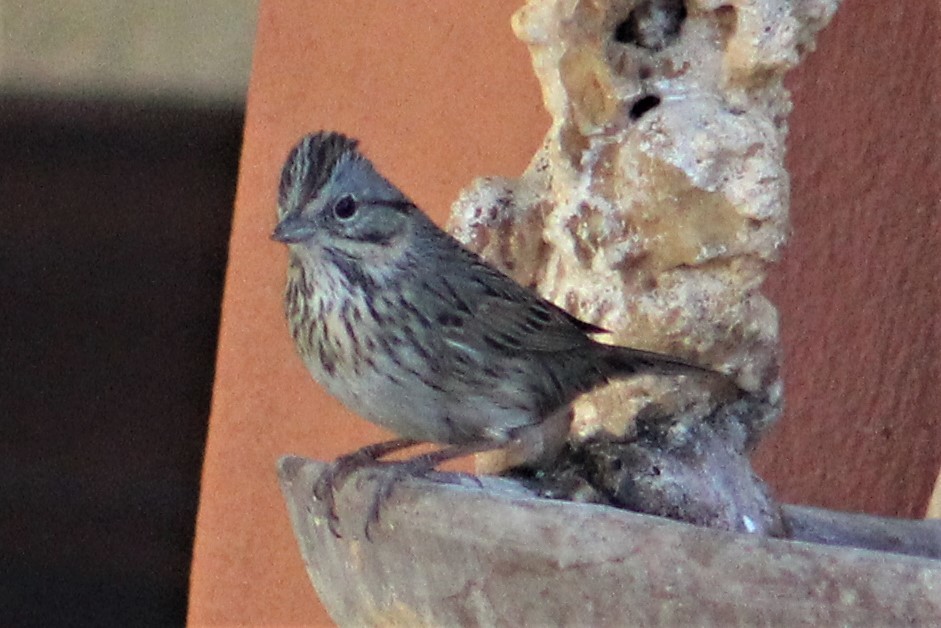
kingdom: Animalia
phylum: Chordata
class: Aves
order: Passeriformes
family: Passerellidae
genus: Melospiza
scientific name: Melospiza lincolnii
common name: Lincoln's sparrow
